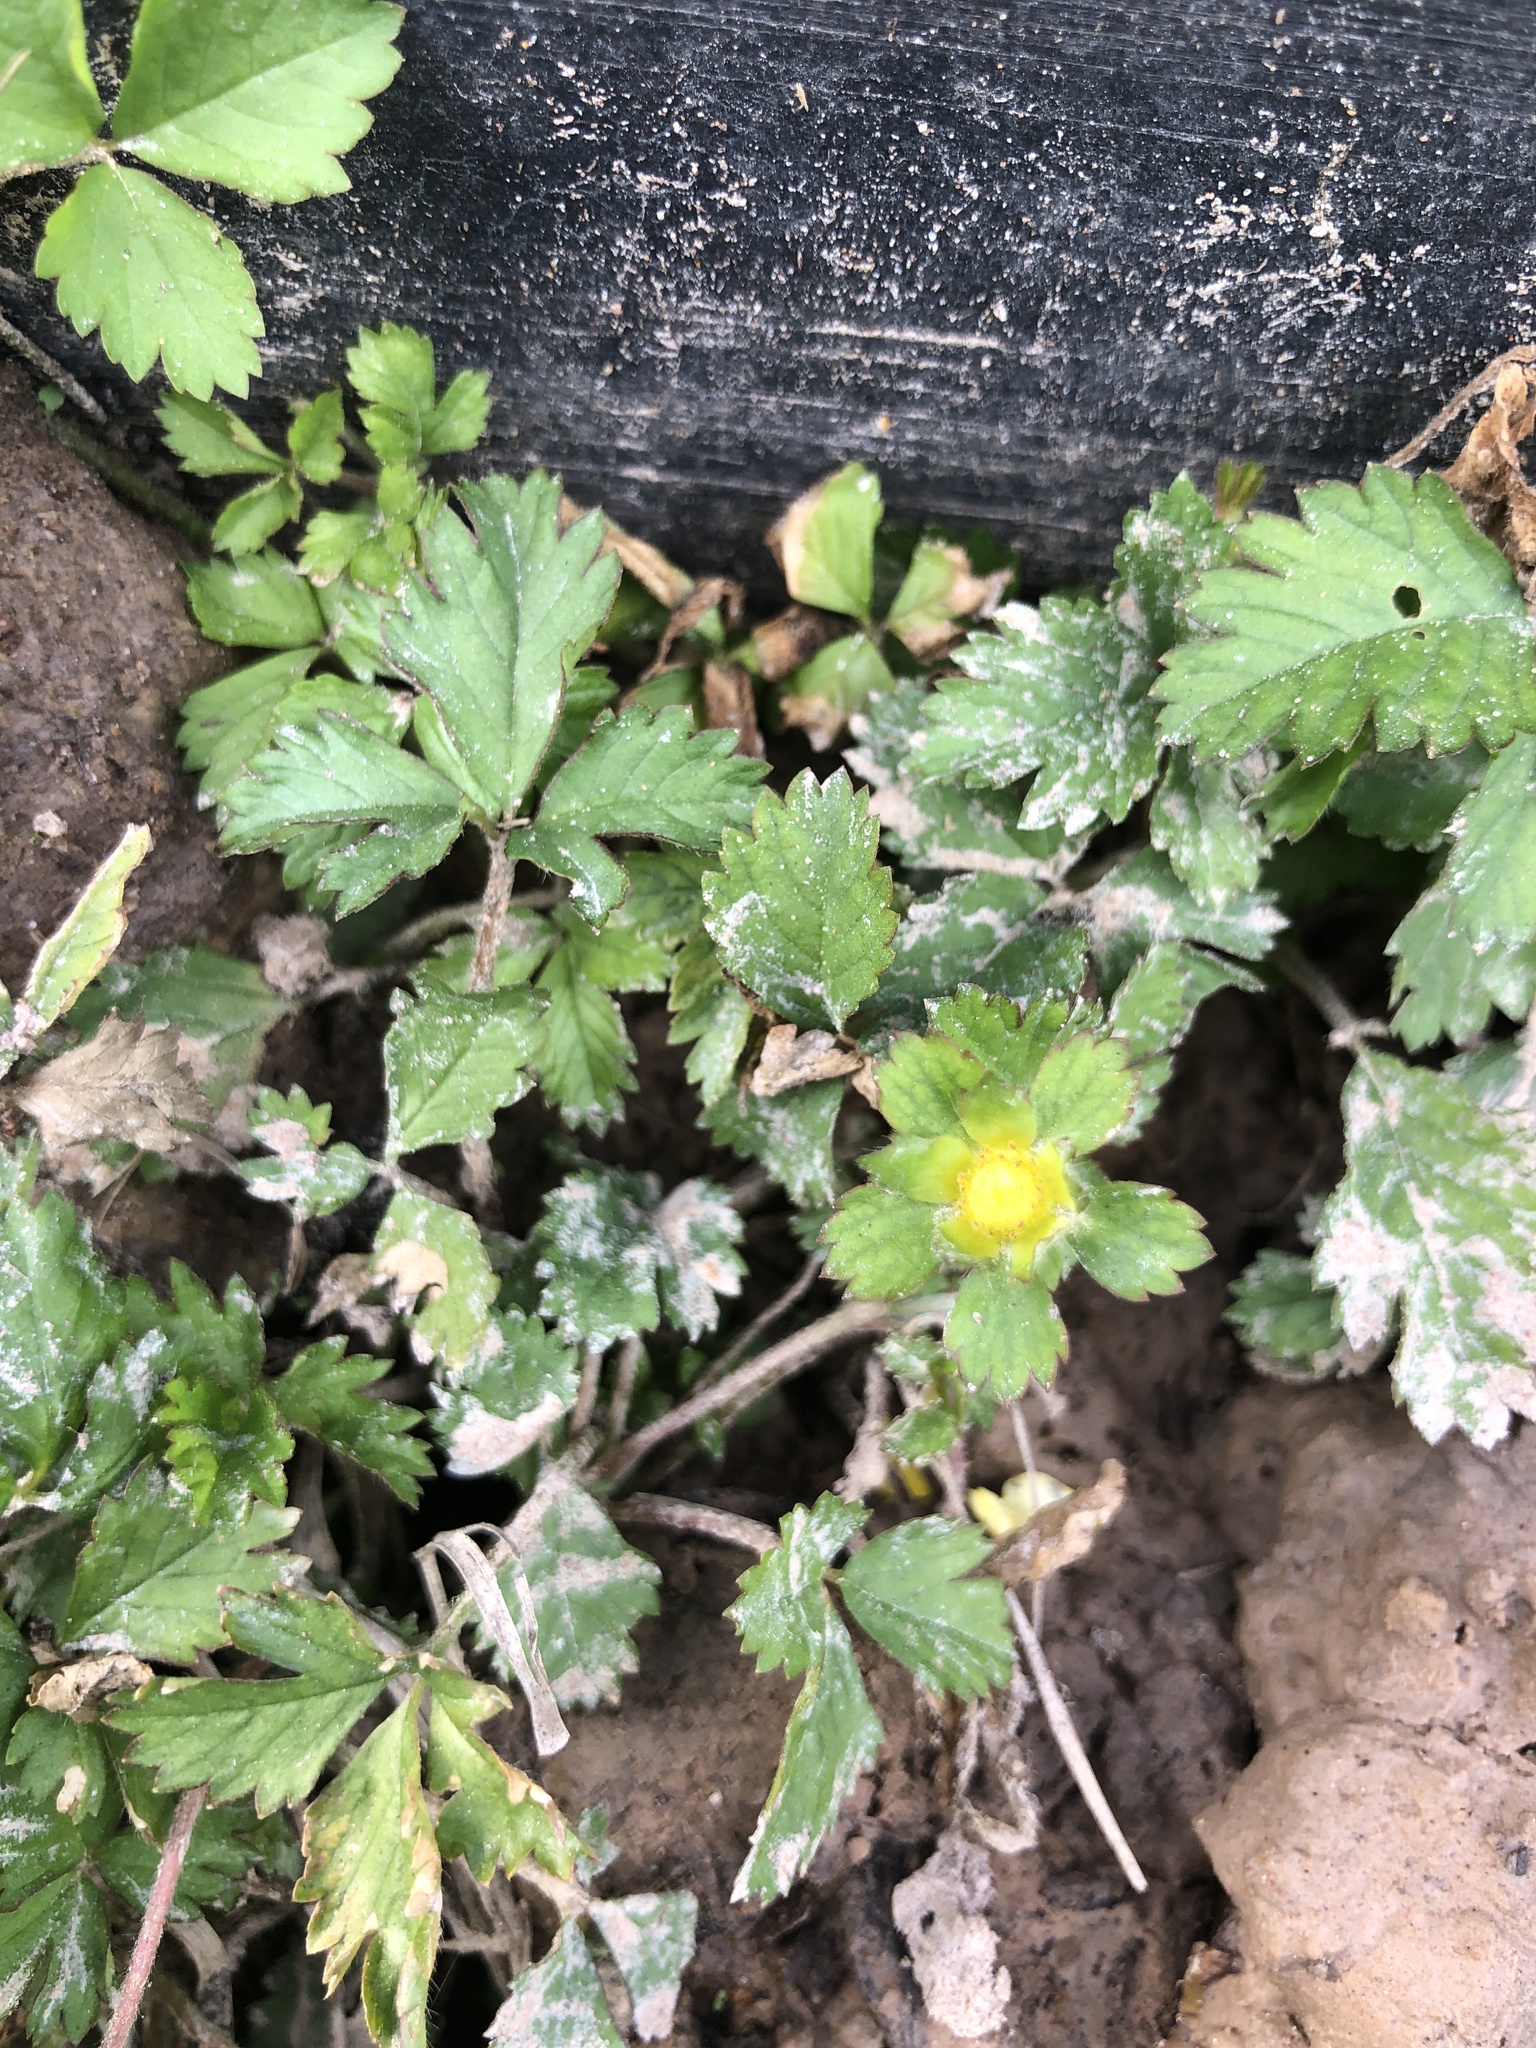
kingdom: Plantae
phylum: Tracheophyta
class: Magnoliopsida
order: Rosales
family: Rosaceae
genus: Potentilla
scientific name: Potentilla indica
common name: Yellow-flowered strawberry
